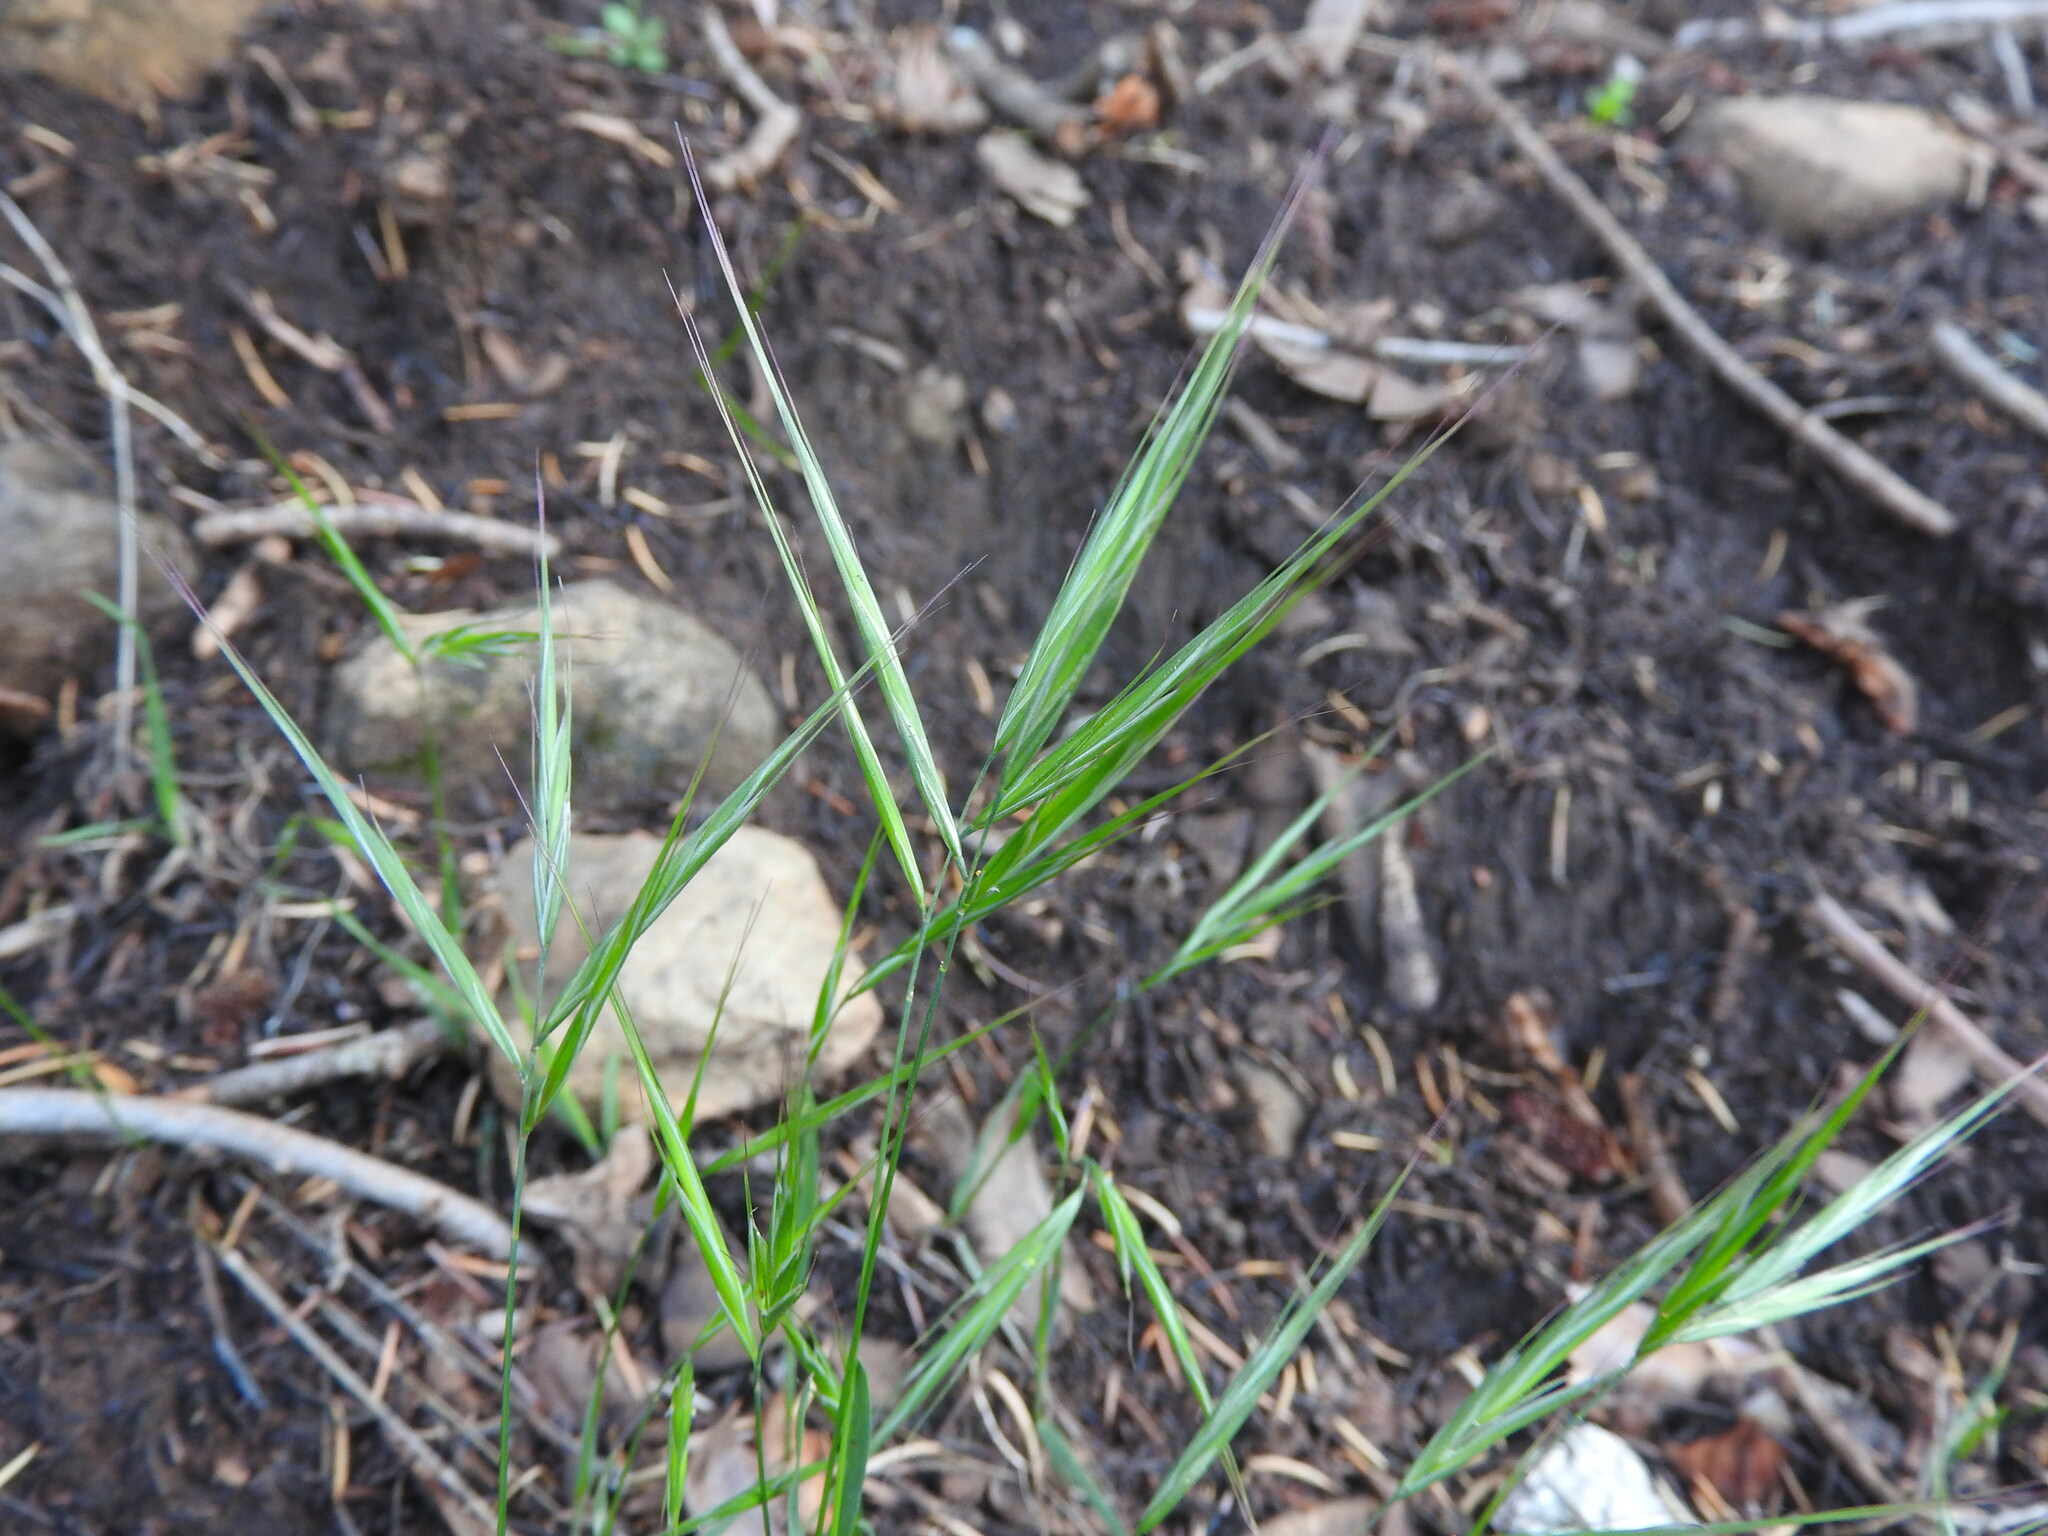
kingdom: Plantae
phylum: Tracheophyta
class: Liliopsida
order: Poales
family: Poaceae
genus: Bromus
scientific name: Bromus madritensis
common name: Compact brome
